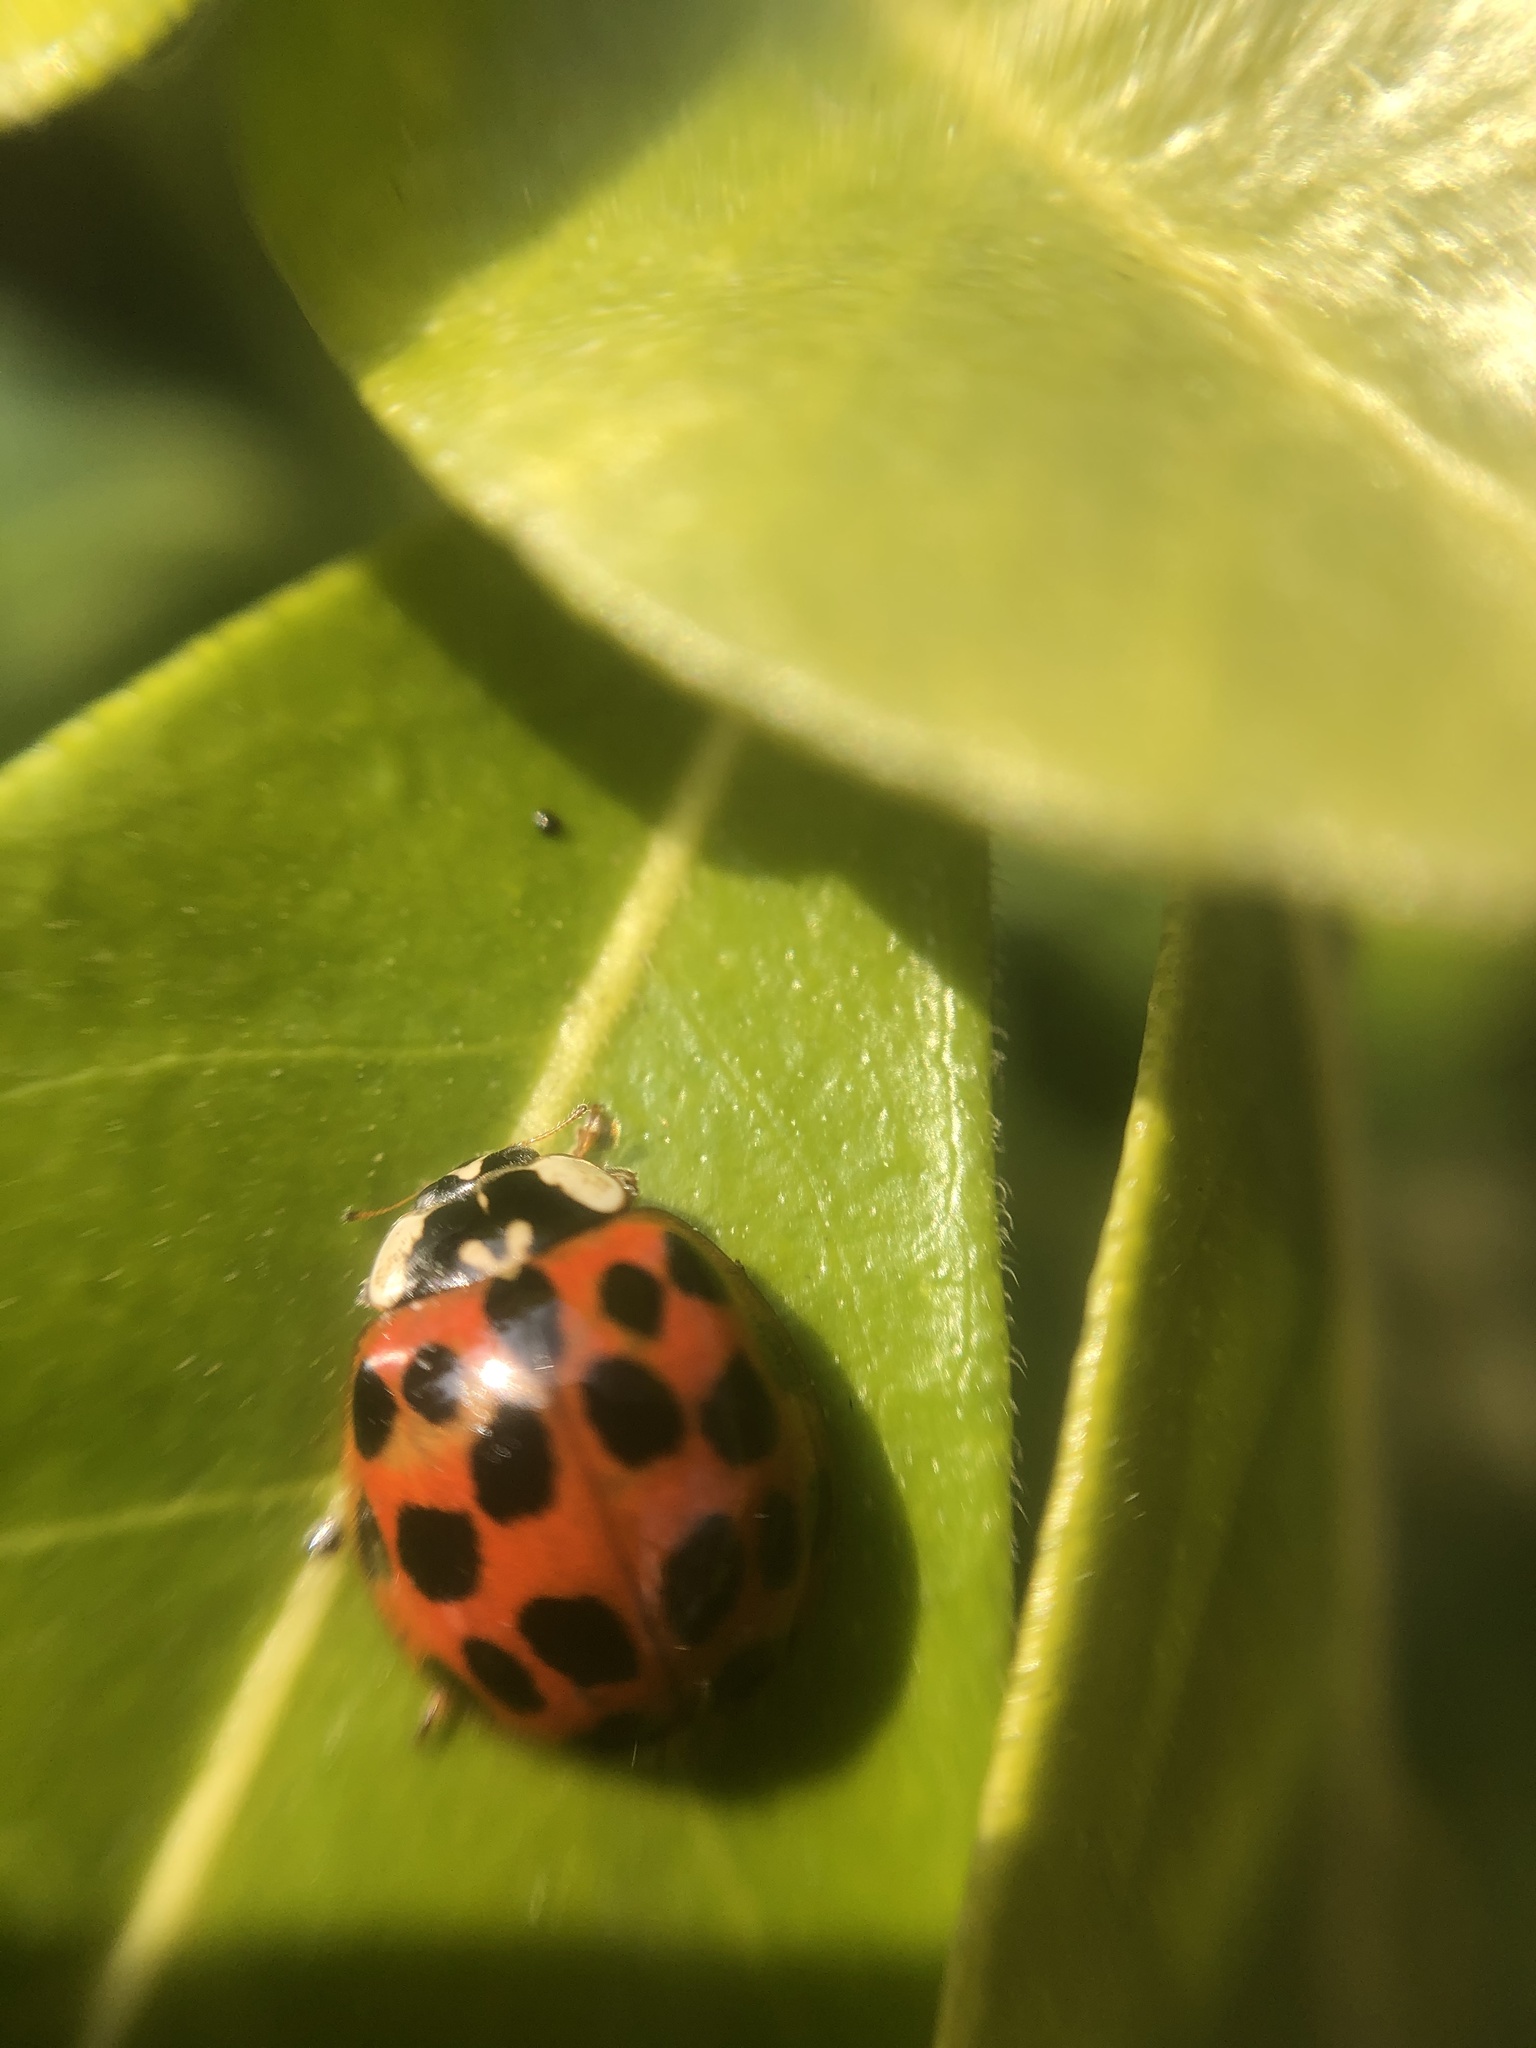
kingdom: Animalia
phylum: Arthropoda
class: Insecta
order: Coleoptera
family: Coccinellidae
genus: Harmonia
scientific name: Harmonia axyridis
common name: Harlequin ladybird
